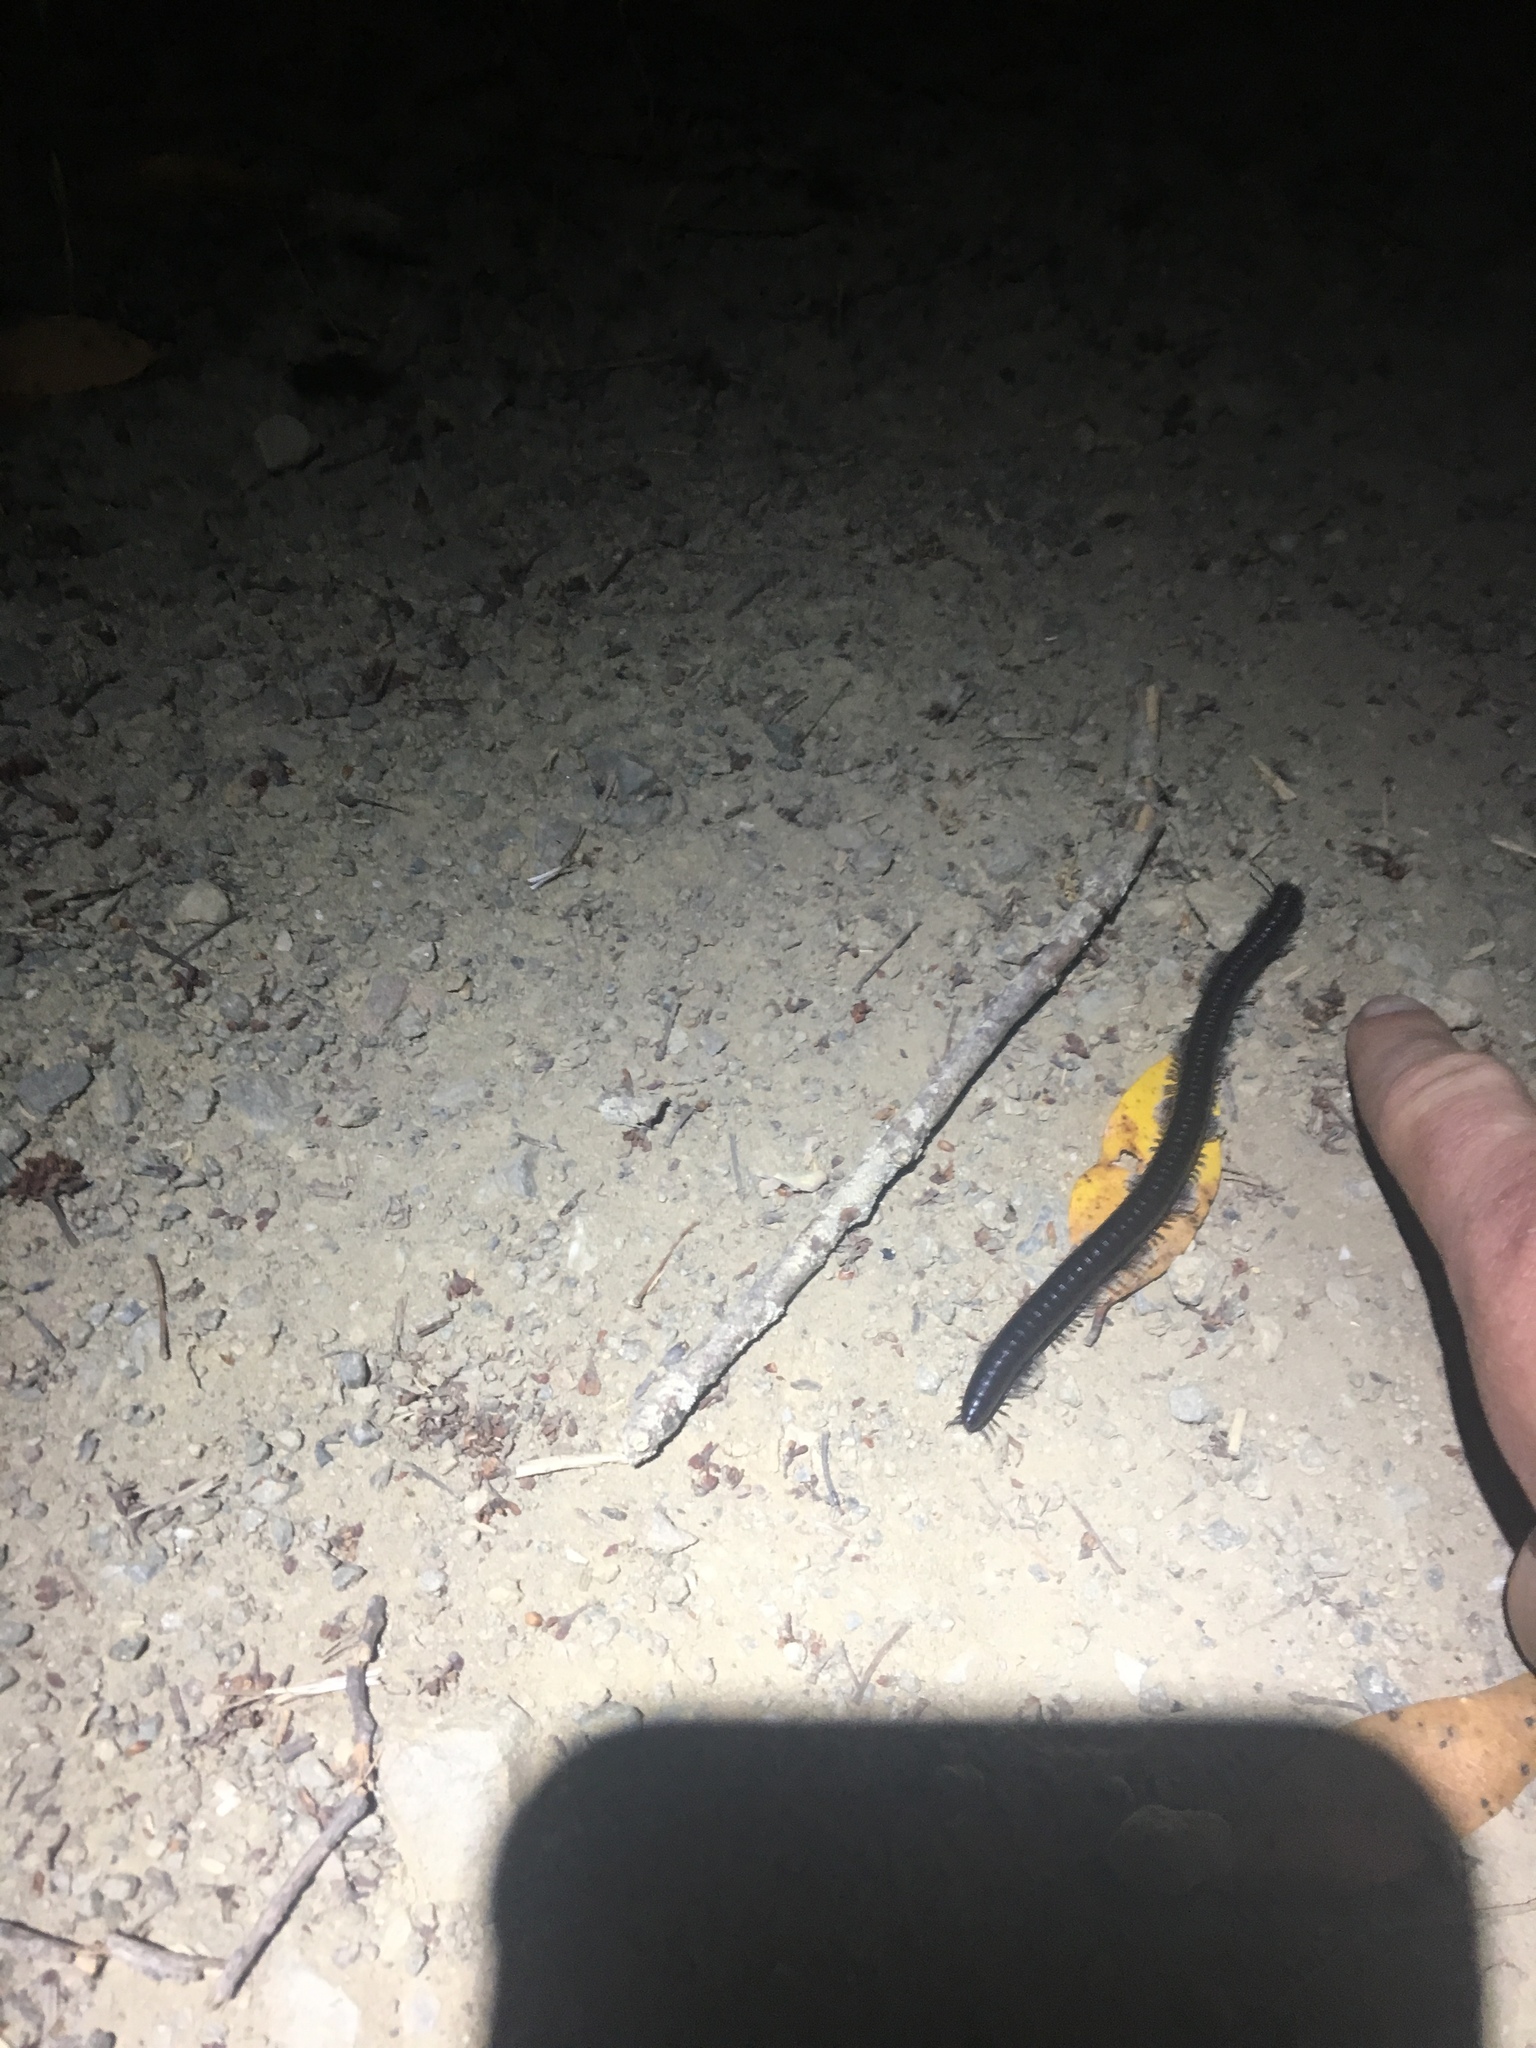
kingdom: Animalia
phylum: Arthropoda
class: Diplopoda
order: Julida
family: Paeromopodidae
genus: Paeromopus
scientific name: Paeromopus angusticeps
